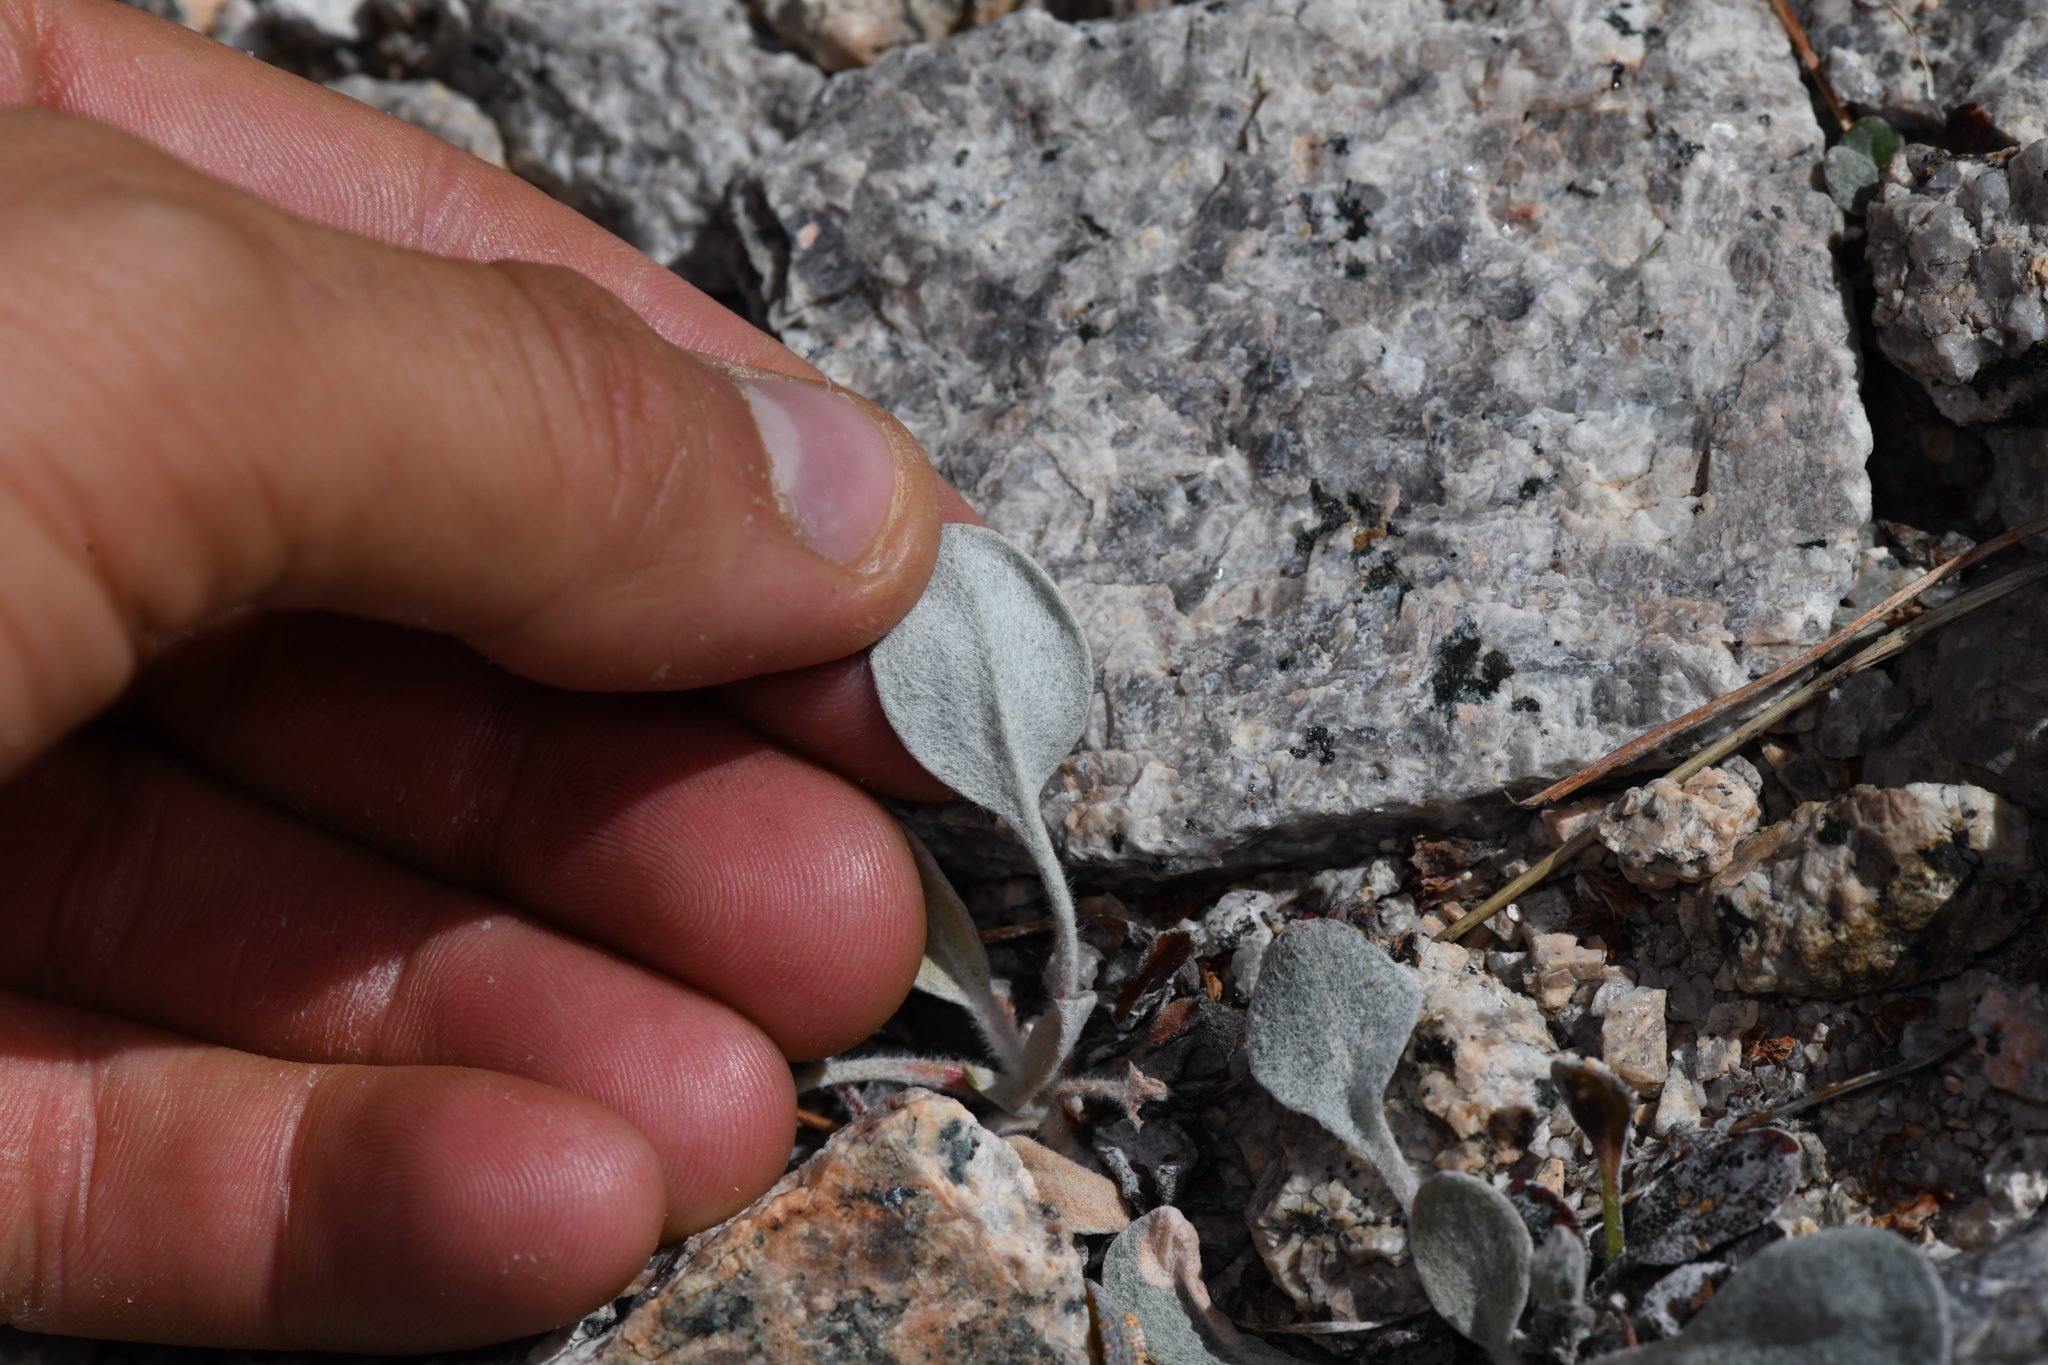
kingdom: Plantae
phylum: Tracheophyta
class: Magnoliopsida
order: Caryophyllales
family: Polygonaceae
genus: Eriogonum
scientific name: Eriogonum lobbii
